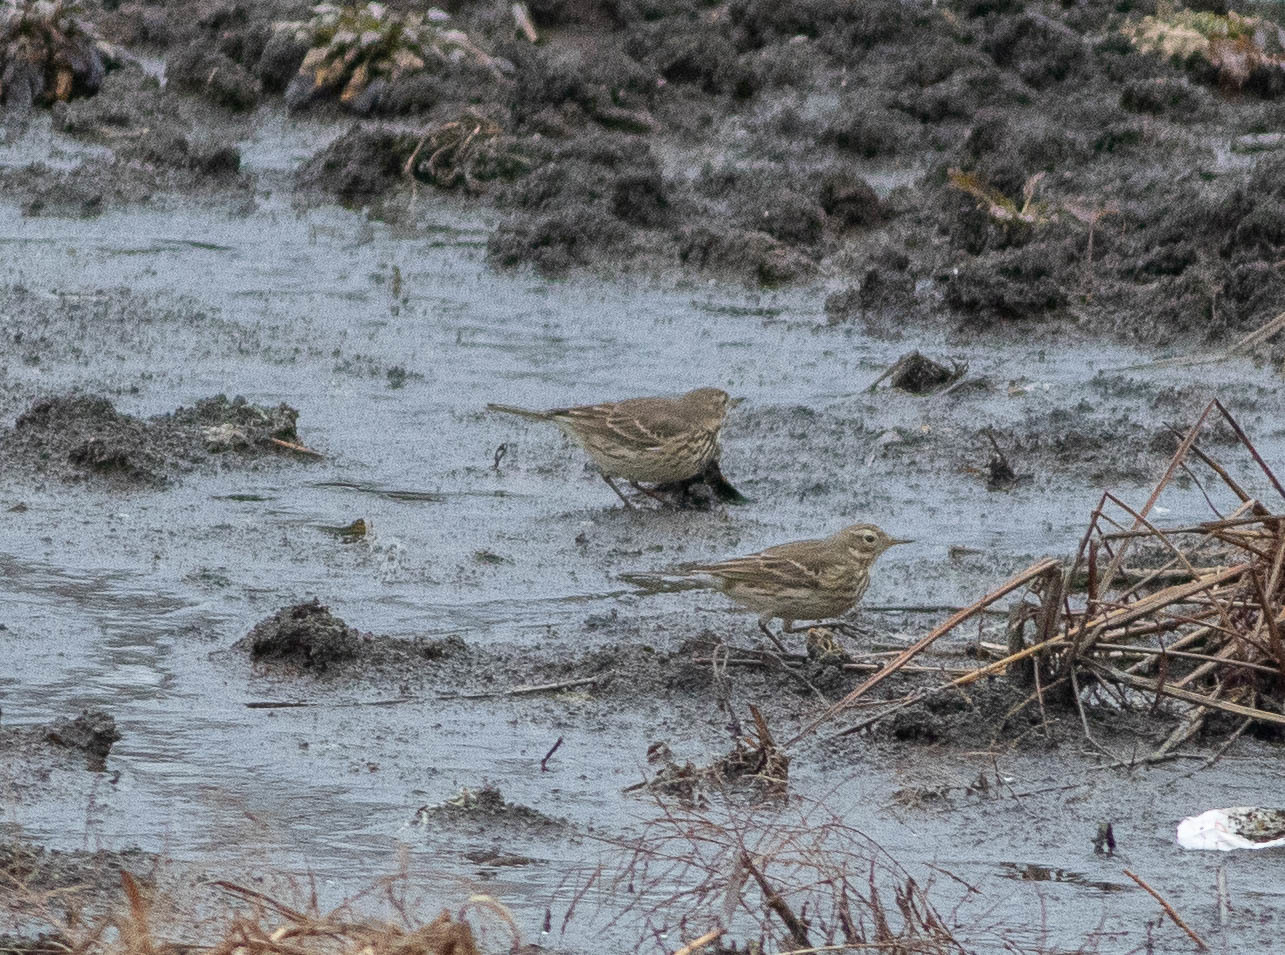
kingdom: Animalia
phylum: Chordata
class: Aves
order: Passeriformes
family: Motacillidae
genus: Anthus
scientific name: Anthus rubescens
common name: Buff-bellied pipit
